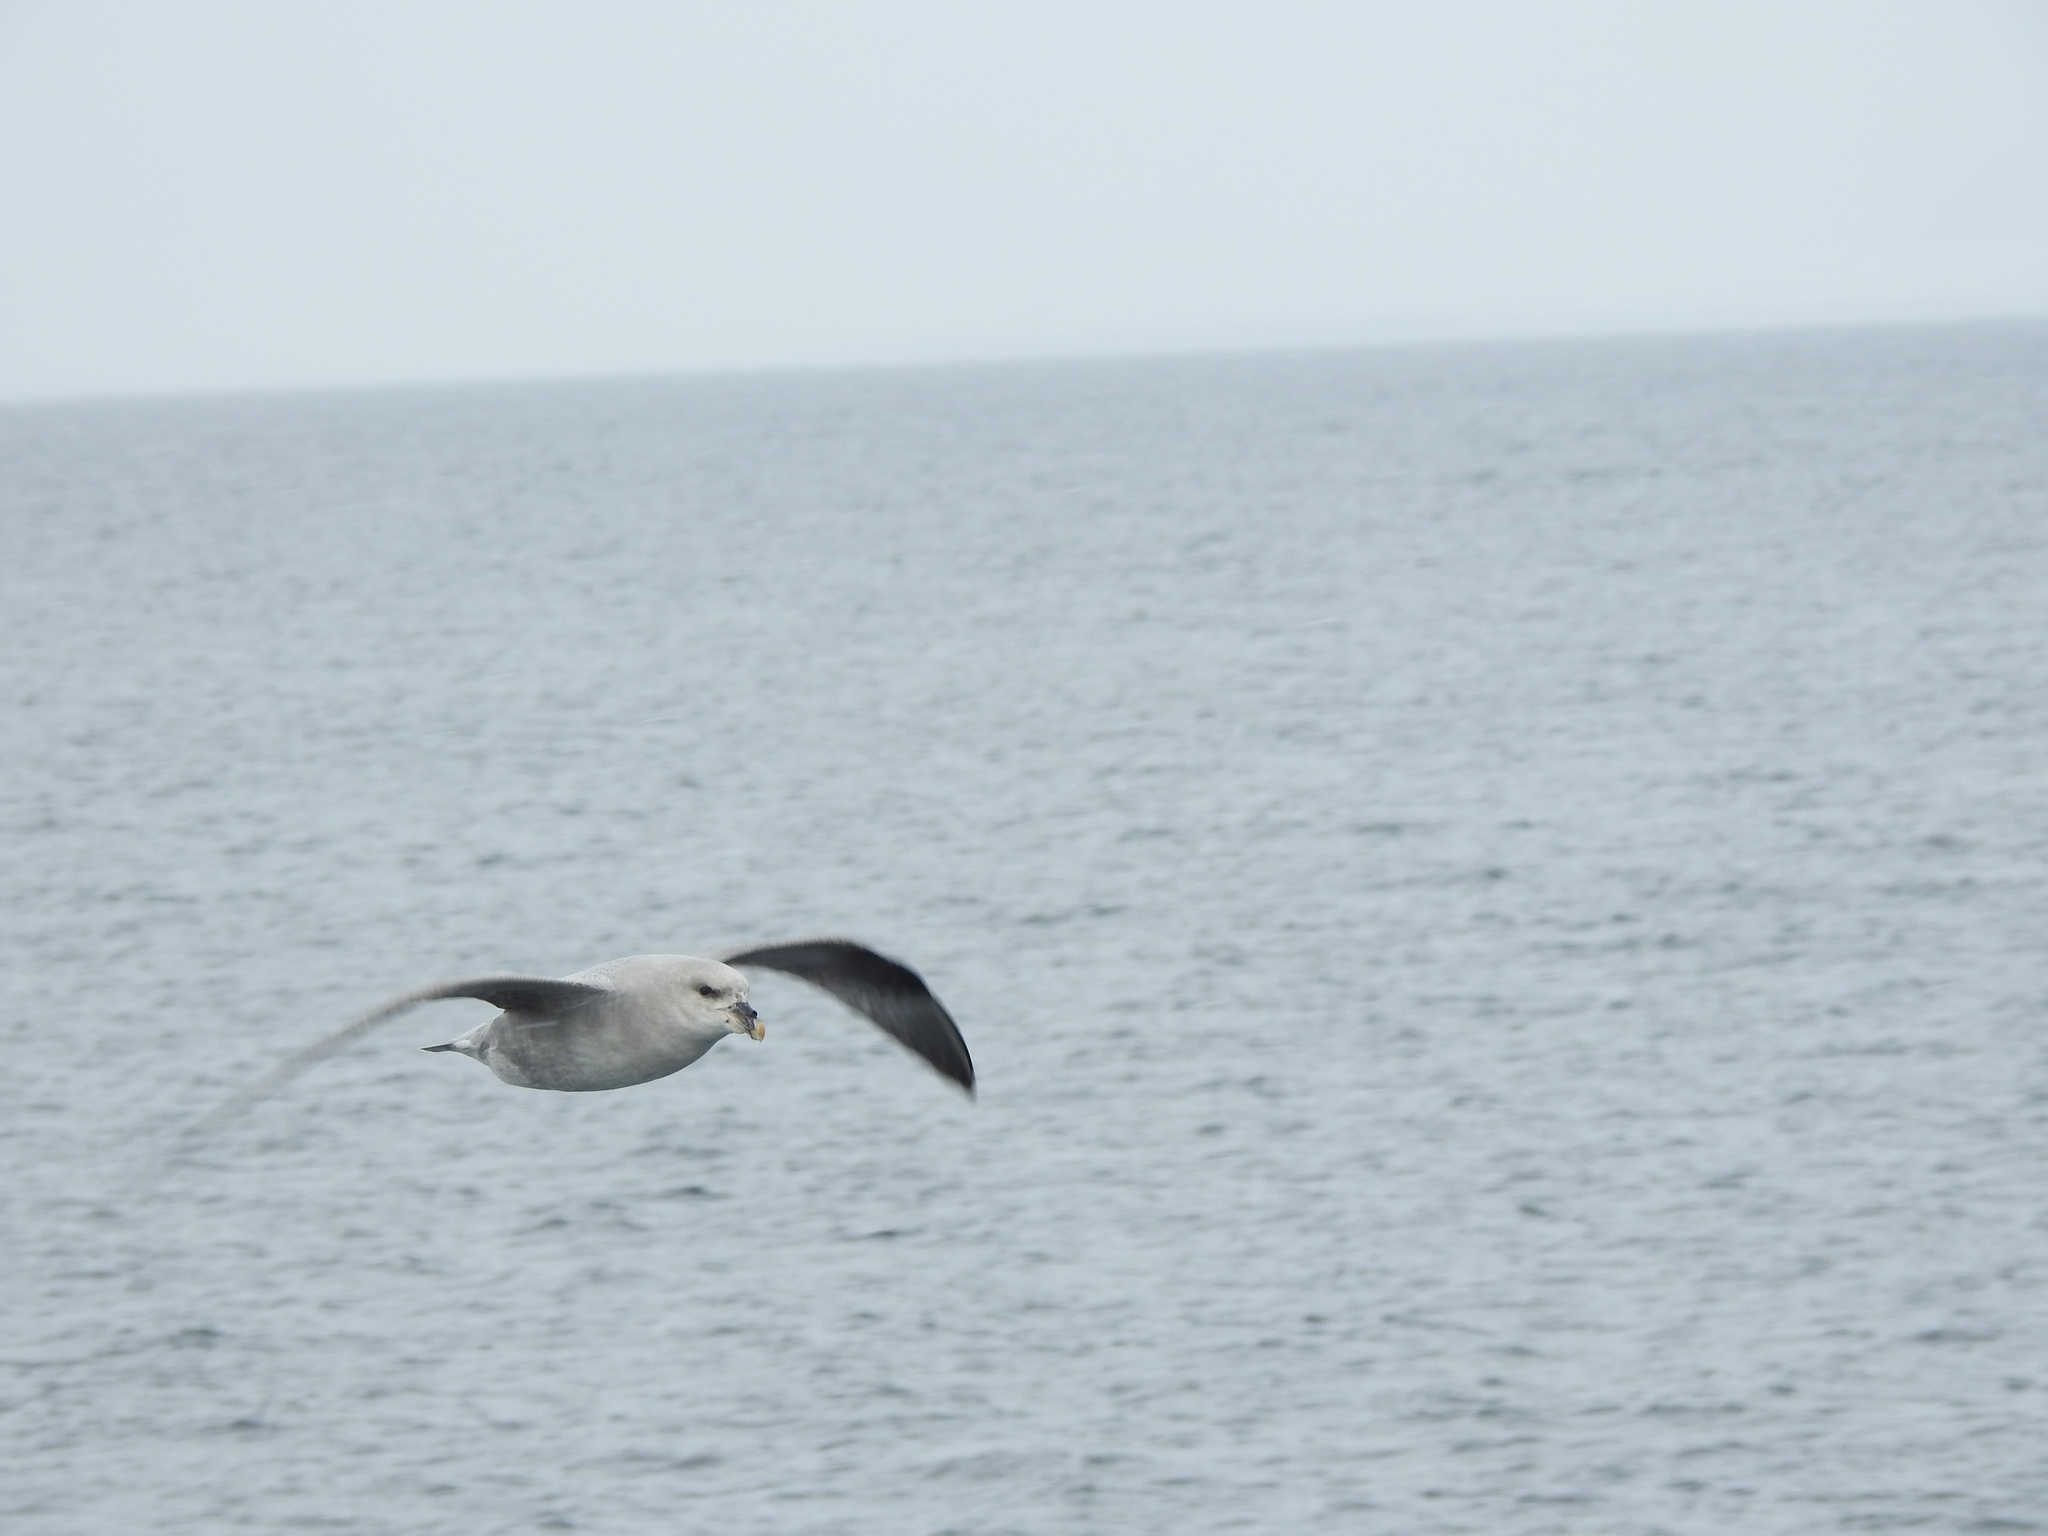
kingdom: Animalia
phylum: Chordata
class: Aves
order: Procellariiformes
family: Procellariidae
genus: Fulmarus
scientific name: Fulmarus glacialis
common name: Northern fulmar
